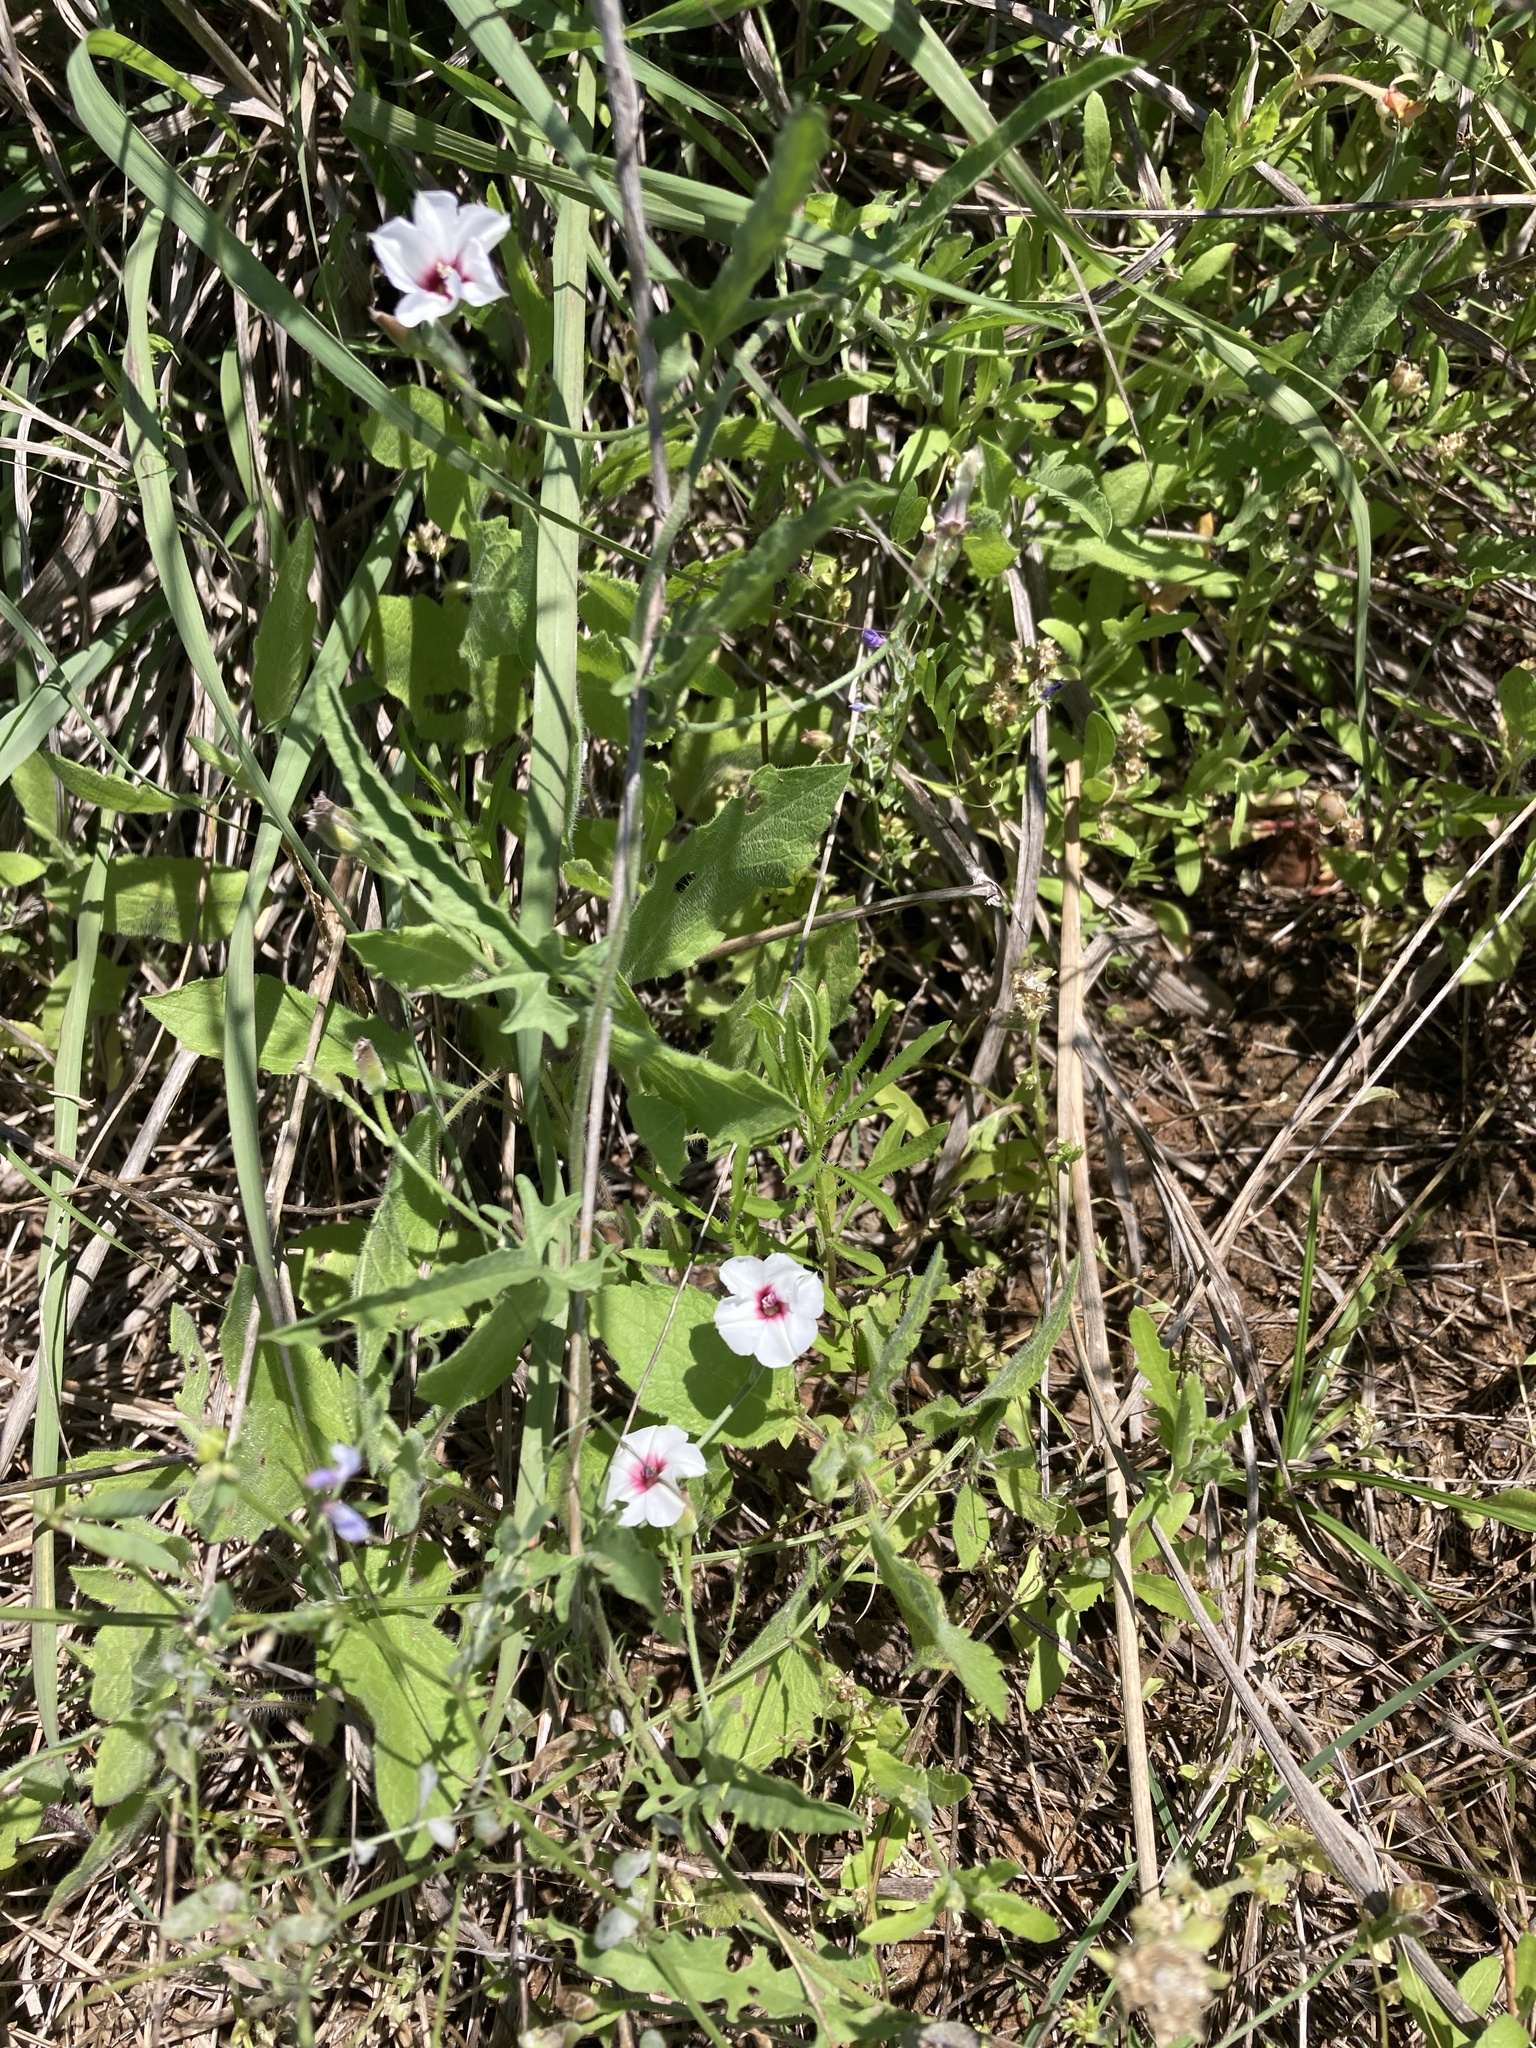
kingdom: Plantae
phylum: Tracheophyta
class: Magnoliopsida
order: Solanales
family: Convolvulaceae
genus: Convolvulus
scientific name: Convolvulus equitans
